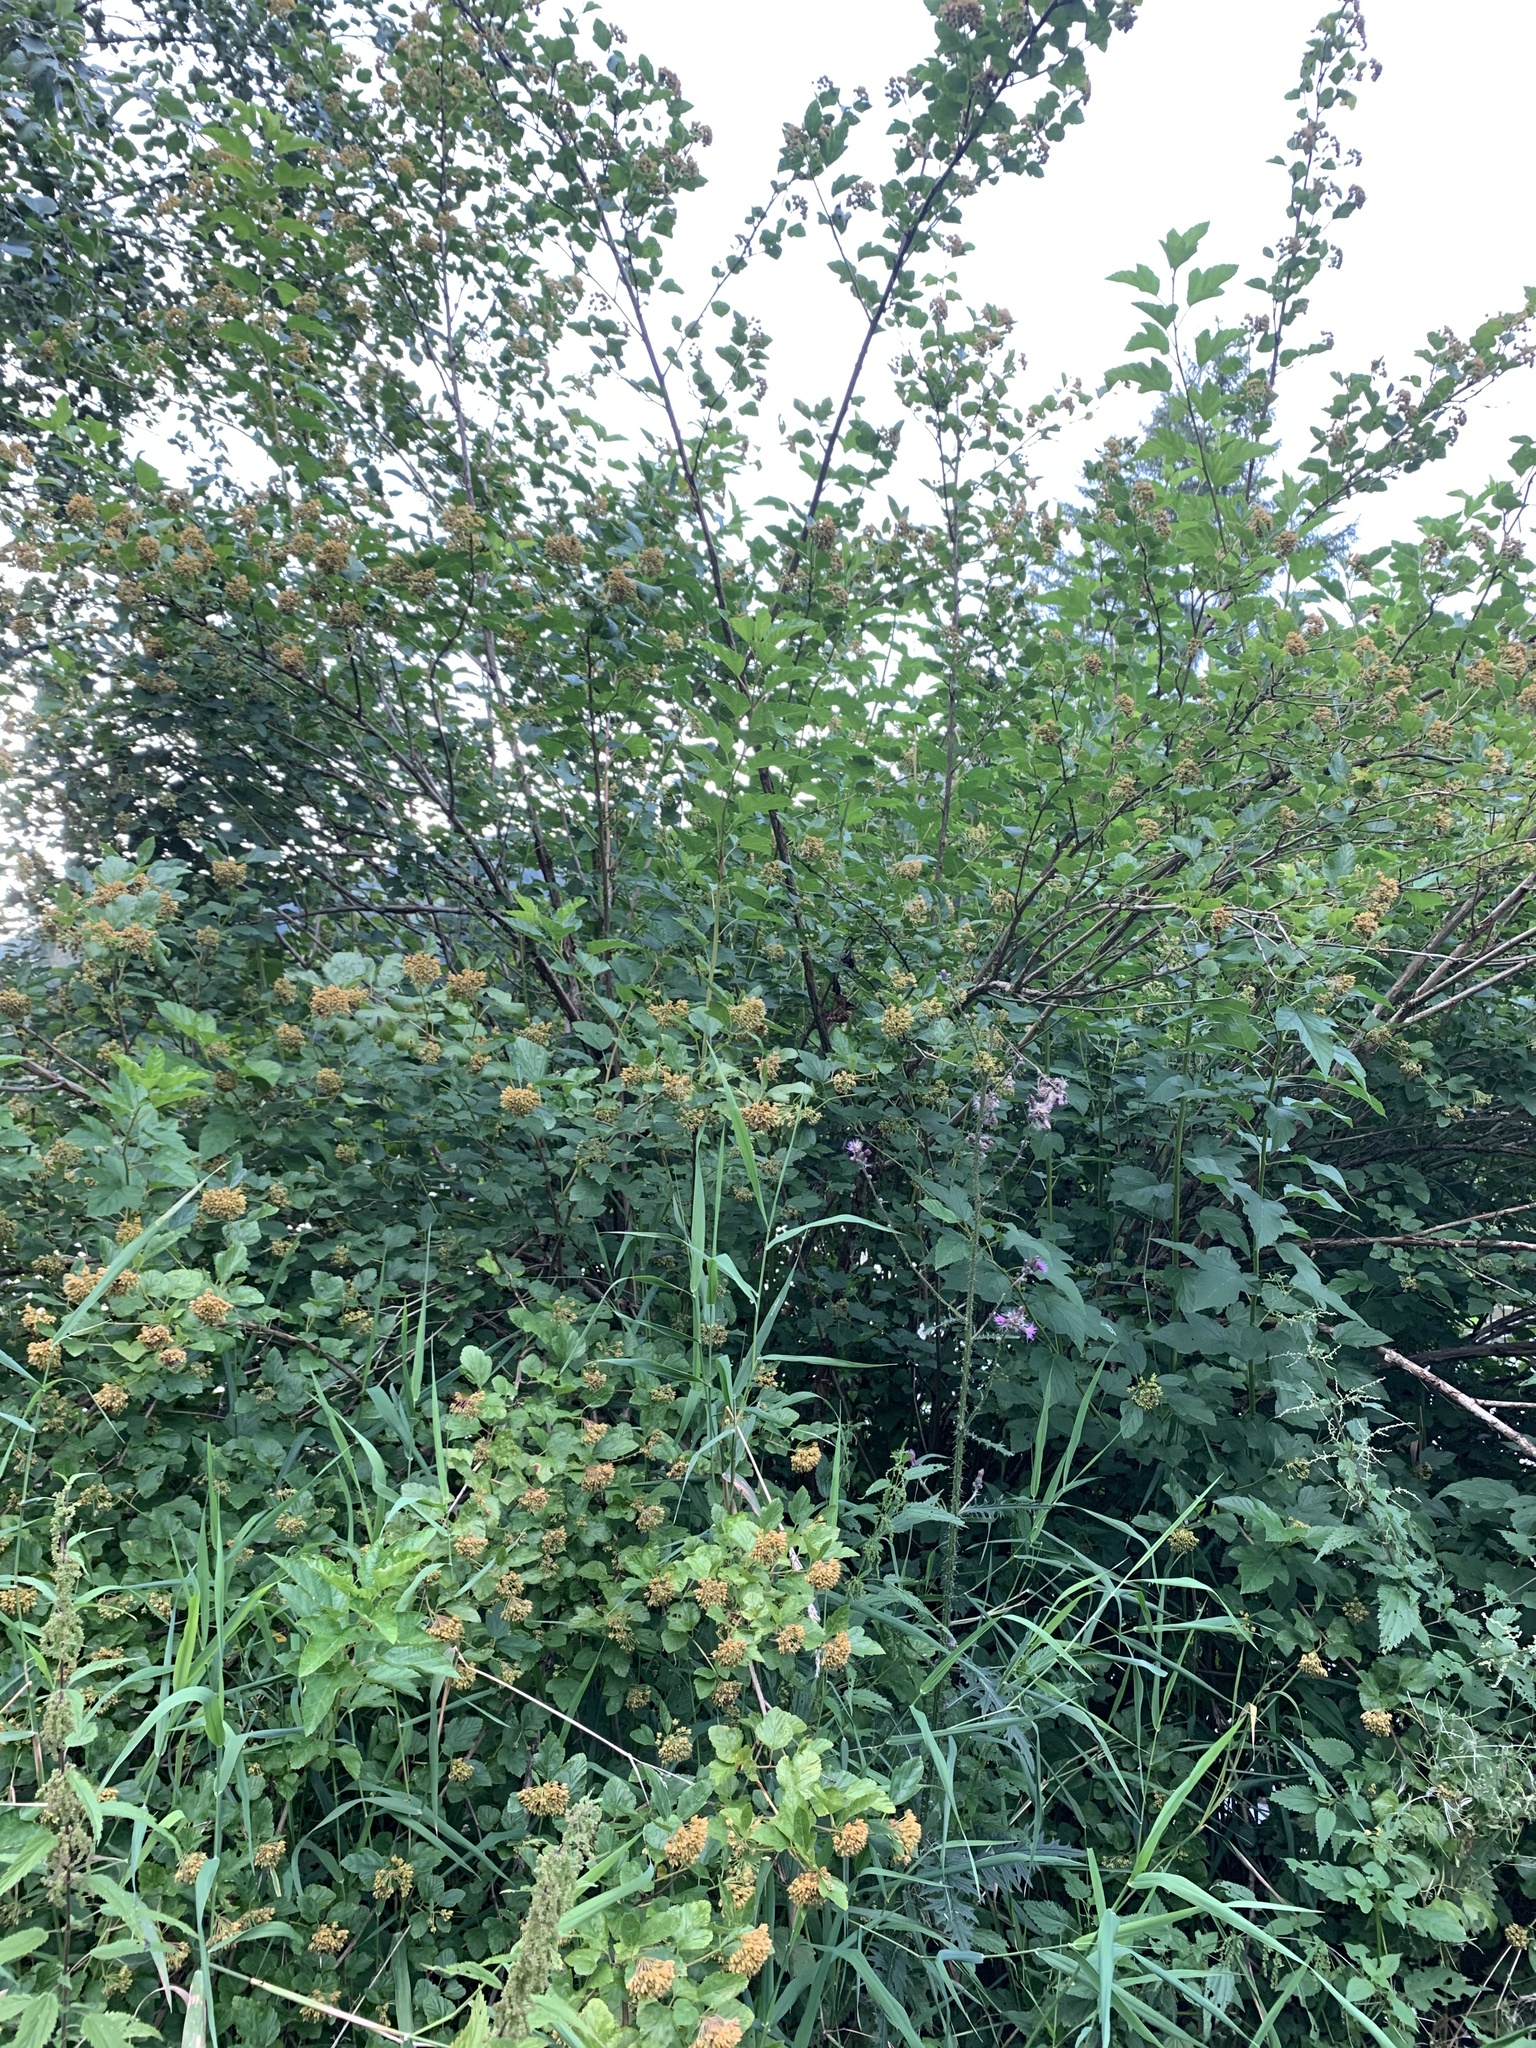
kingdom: Plantae
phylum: Tracheophyta
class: Magnoliopsida
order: Rosales
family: Rosaceae
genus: Physocarpus
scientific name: Physocarpus opulifolius
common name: Ninebark
